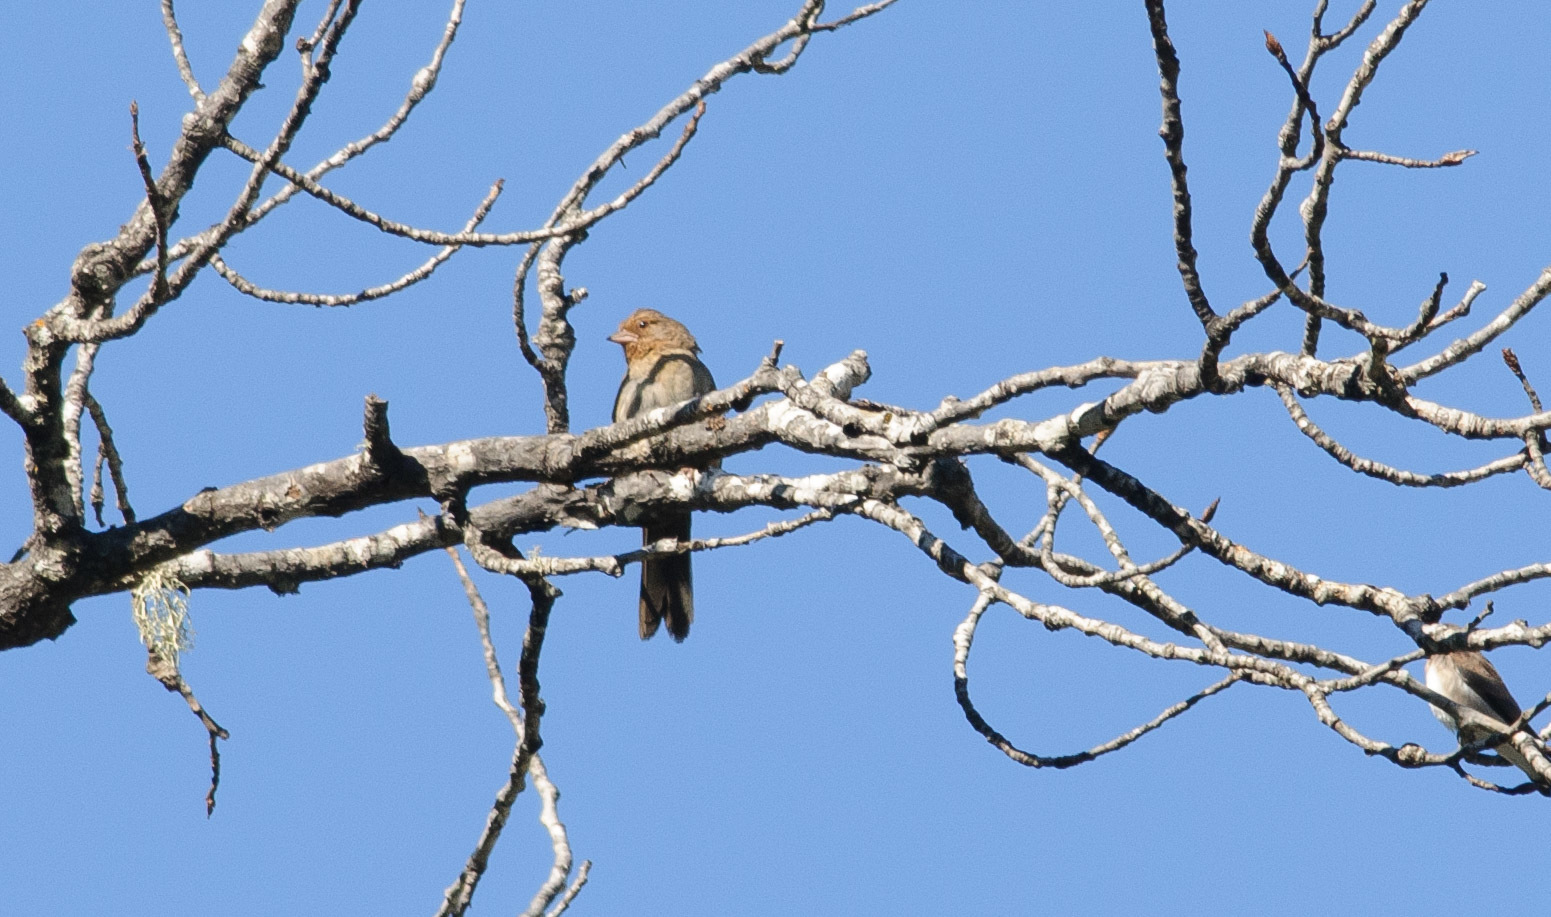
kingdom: Animalia
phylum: Chordata
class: Aves
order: Passeriformes
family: Passerellidae
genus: Melozone
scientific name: Melozone crissalis
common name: California towhee
